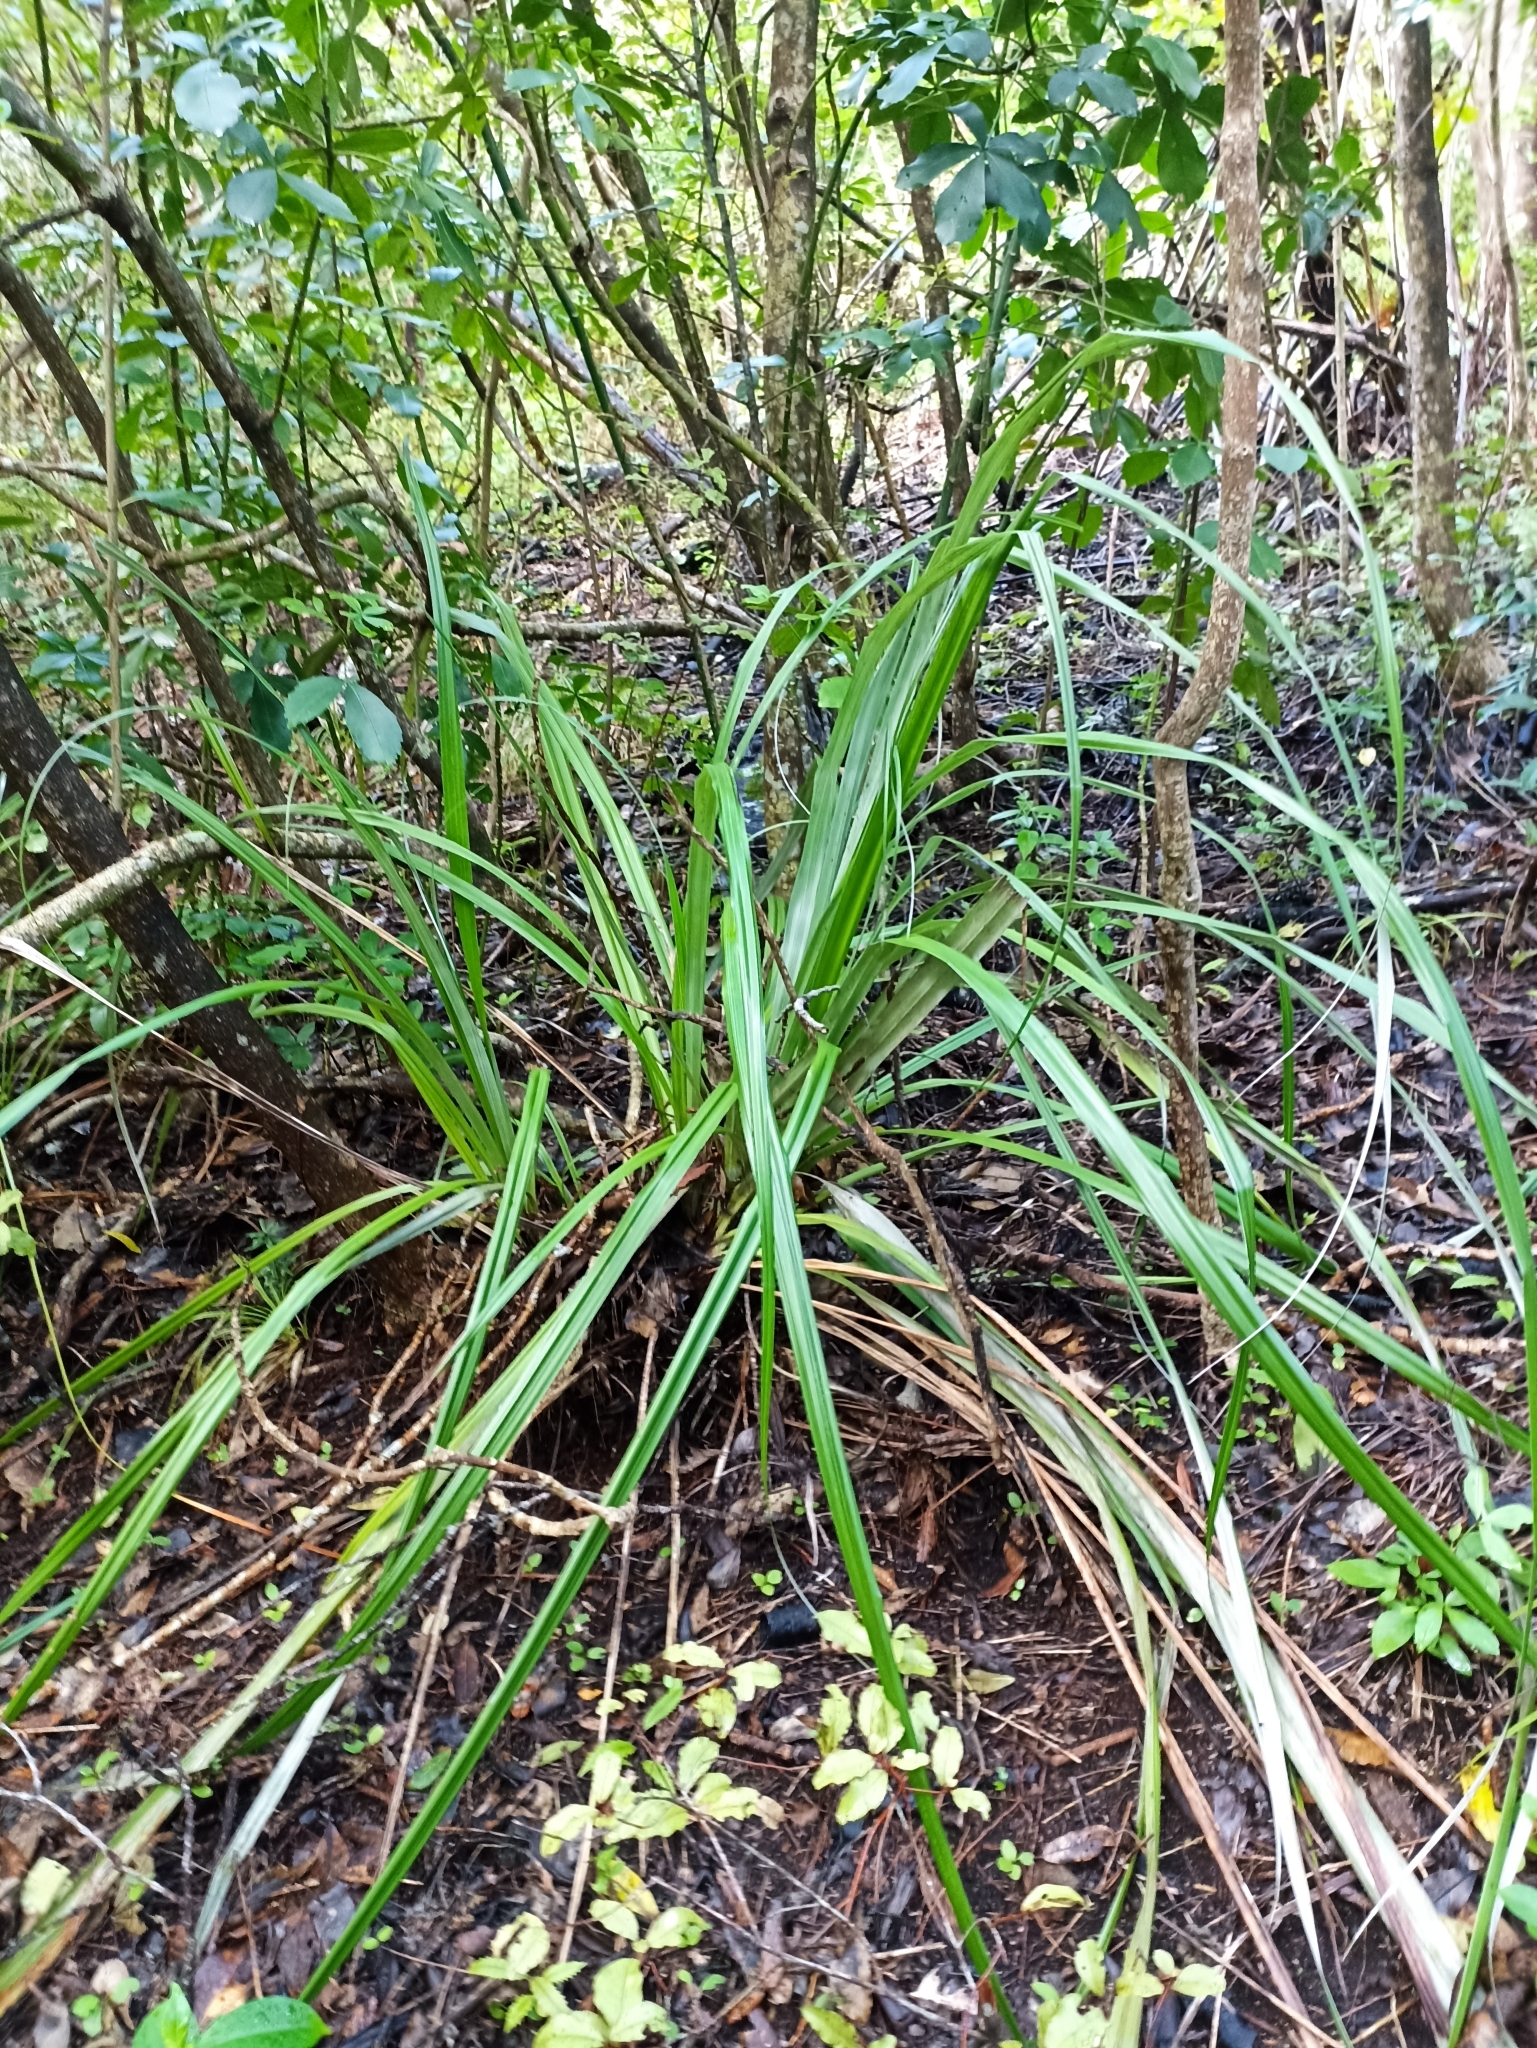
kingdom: Plantae
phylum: Tracheophyta
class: Liliopsida
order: Asparagales
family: Asteliaceae
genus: Astelia
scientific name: Astelia banksii
